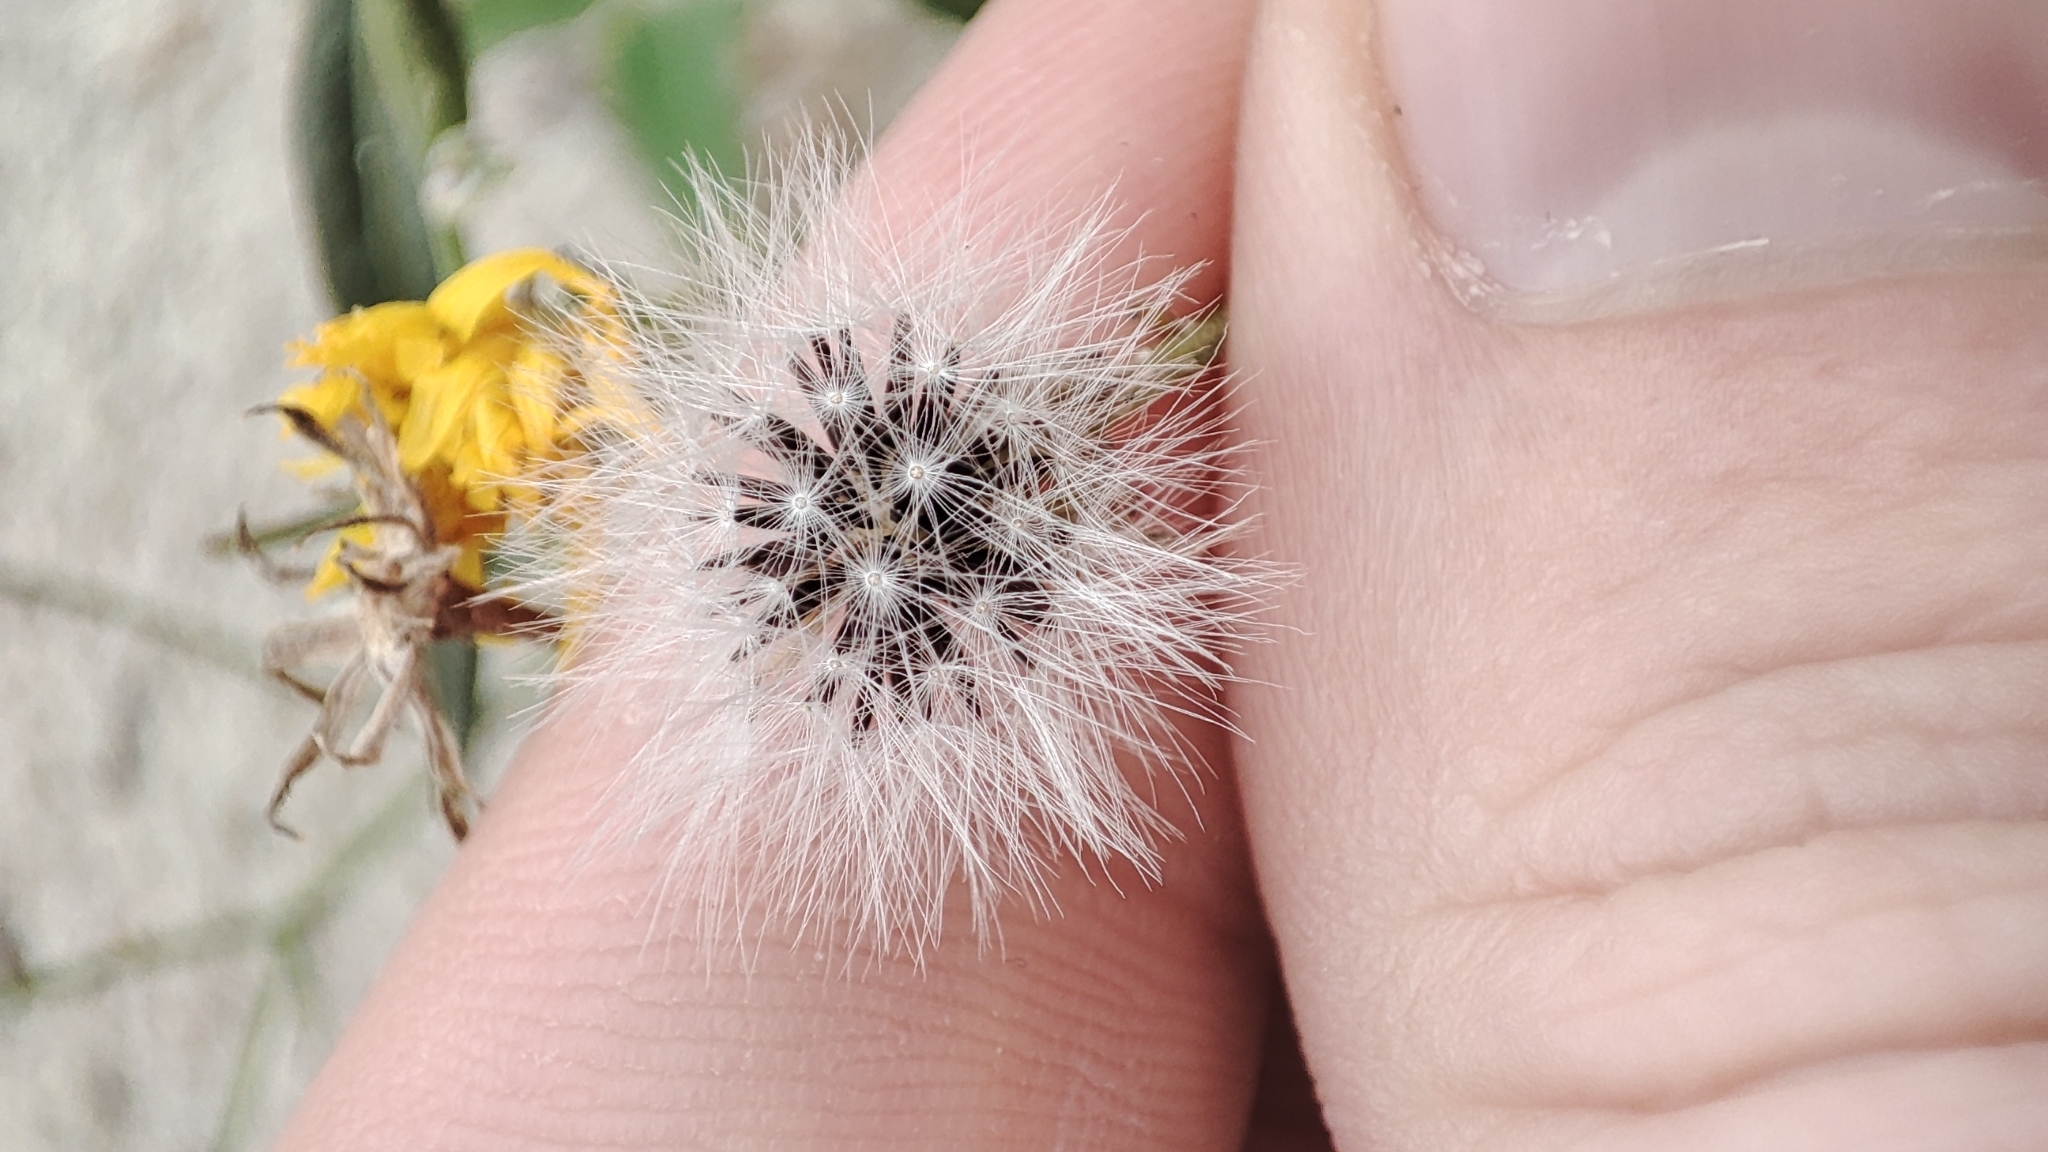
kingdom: Plantae
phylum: Tracheophyta
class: Magnoliopsida
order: Asterales
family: Asteraceae
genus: Crepis
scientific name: Crepis tectorum
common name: Narrow-leaved hawk's-beard
